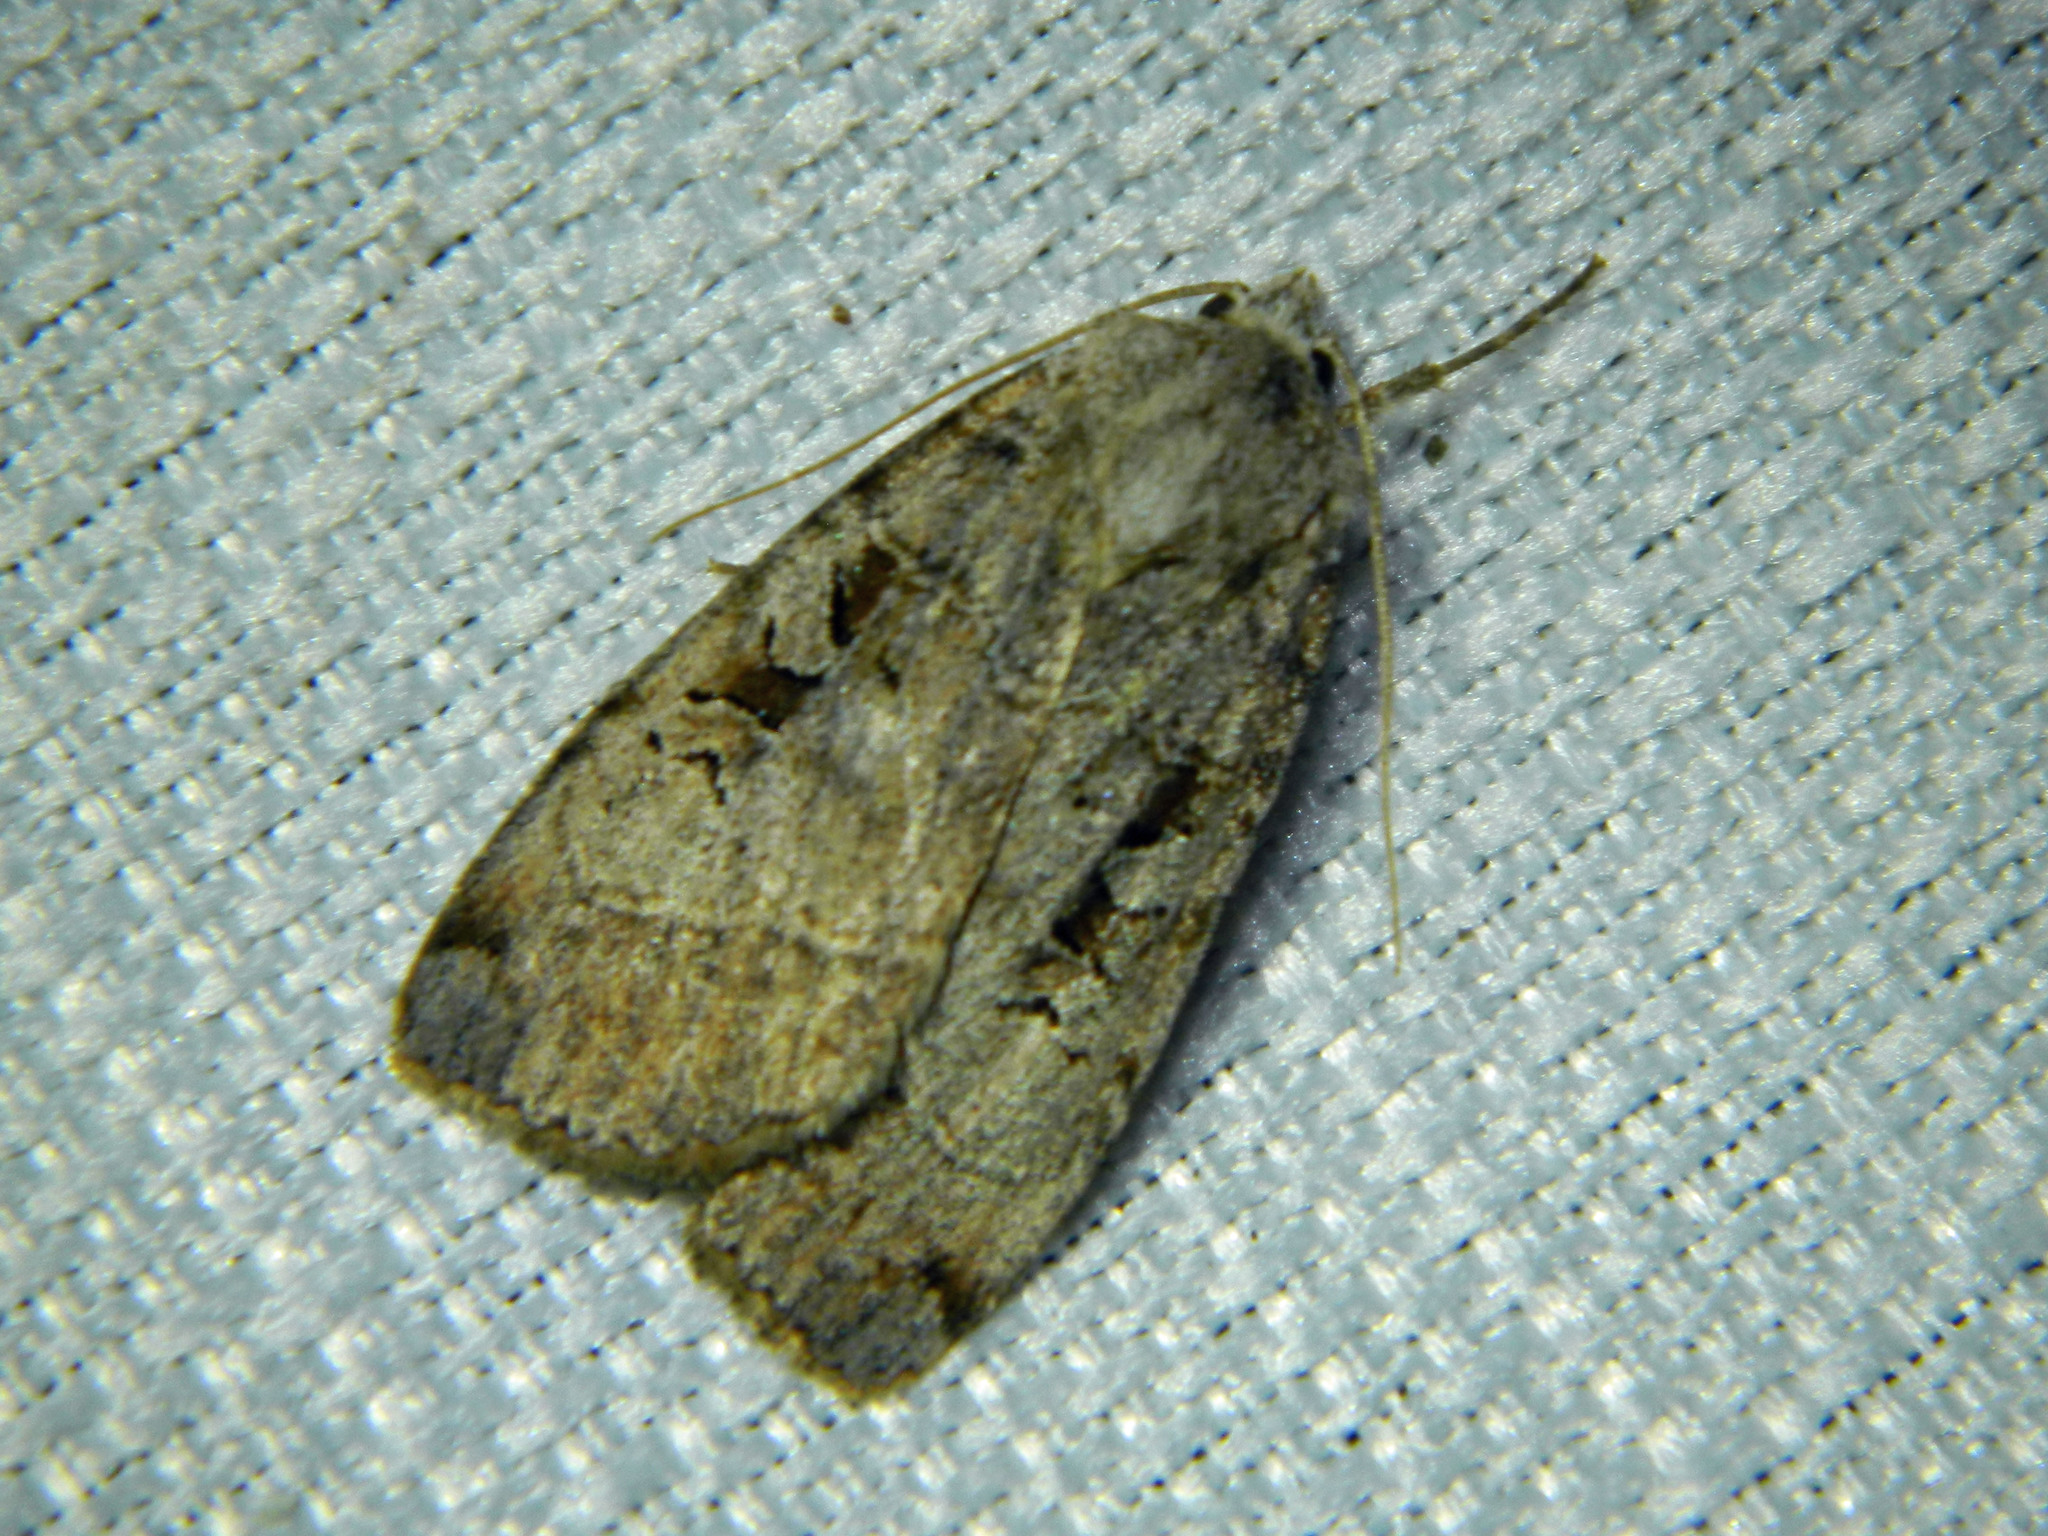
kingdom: Animalia
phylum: Arthropoda
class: Insecta
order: Lepidoptera
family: Noctuidae
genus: Xestia
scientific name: Xestia normaniana
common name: Norman's dart moth
